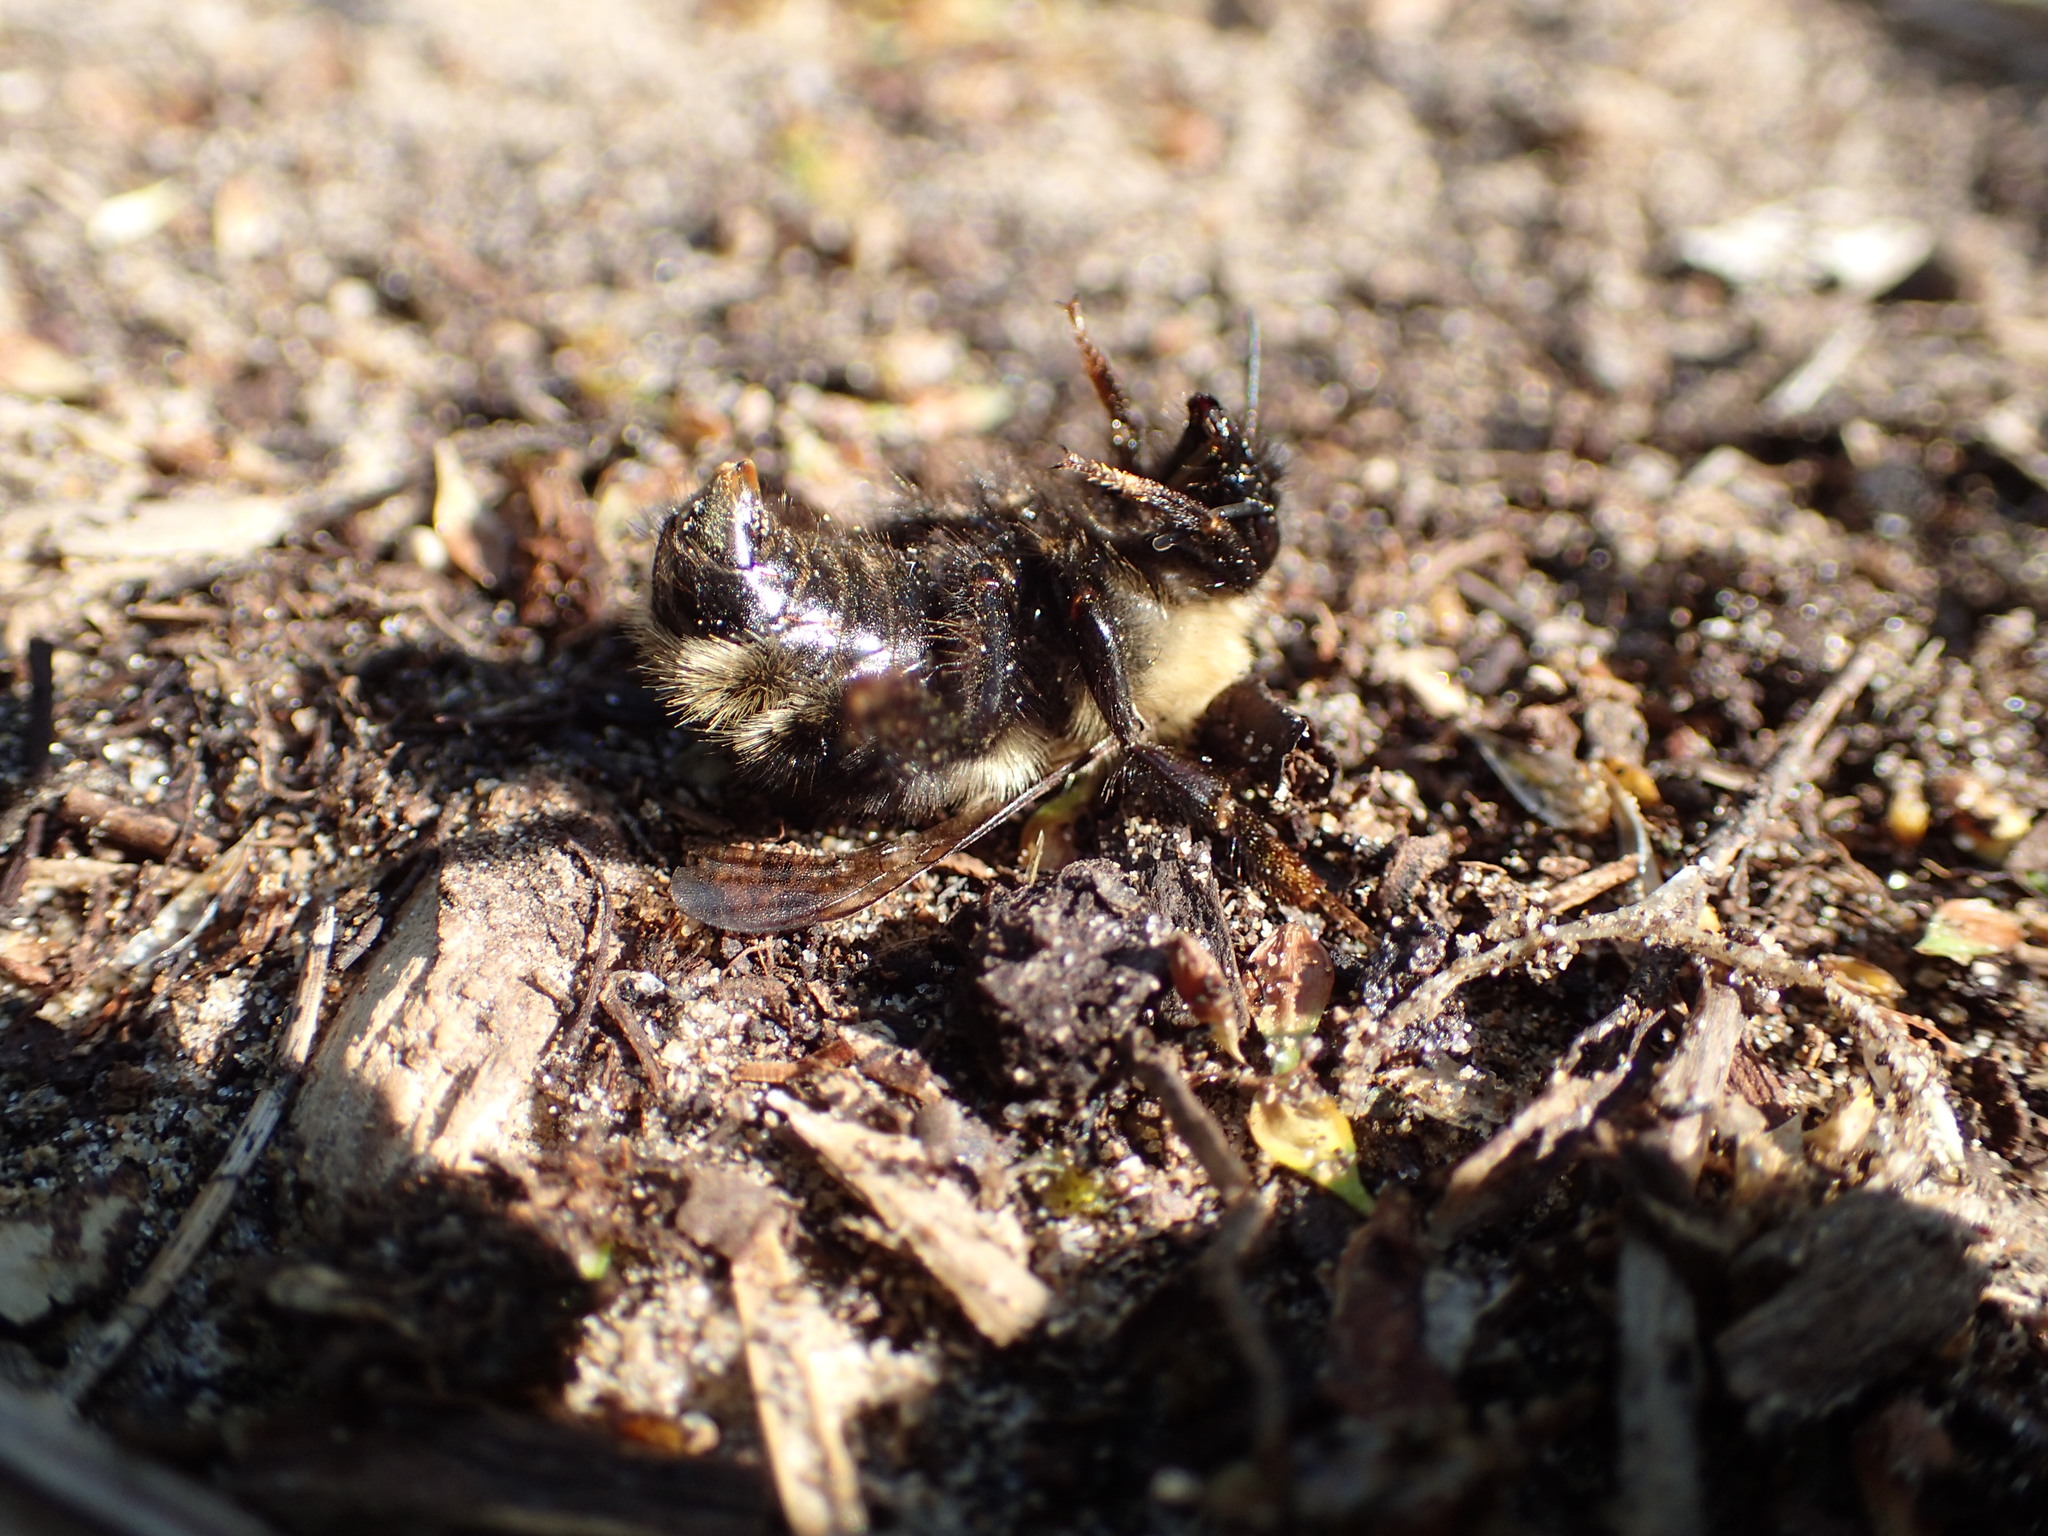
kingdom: Animalia
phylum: Arthropoda
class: Insecta
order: Hymenoptera
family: Apidae
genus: Bombus
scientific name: Bombus flavidus
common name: Fernald cuckoo bumble bee
